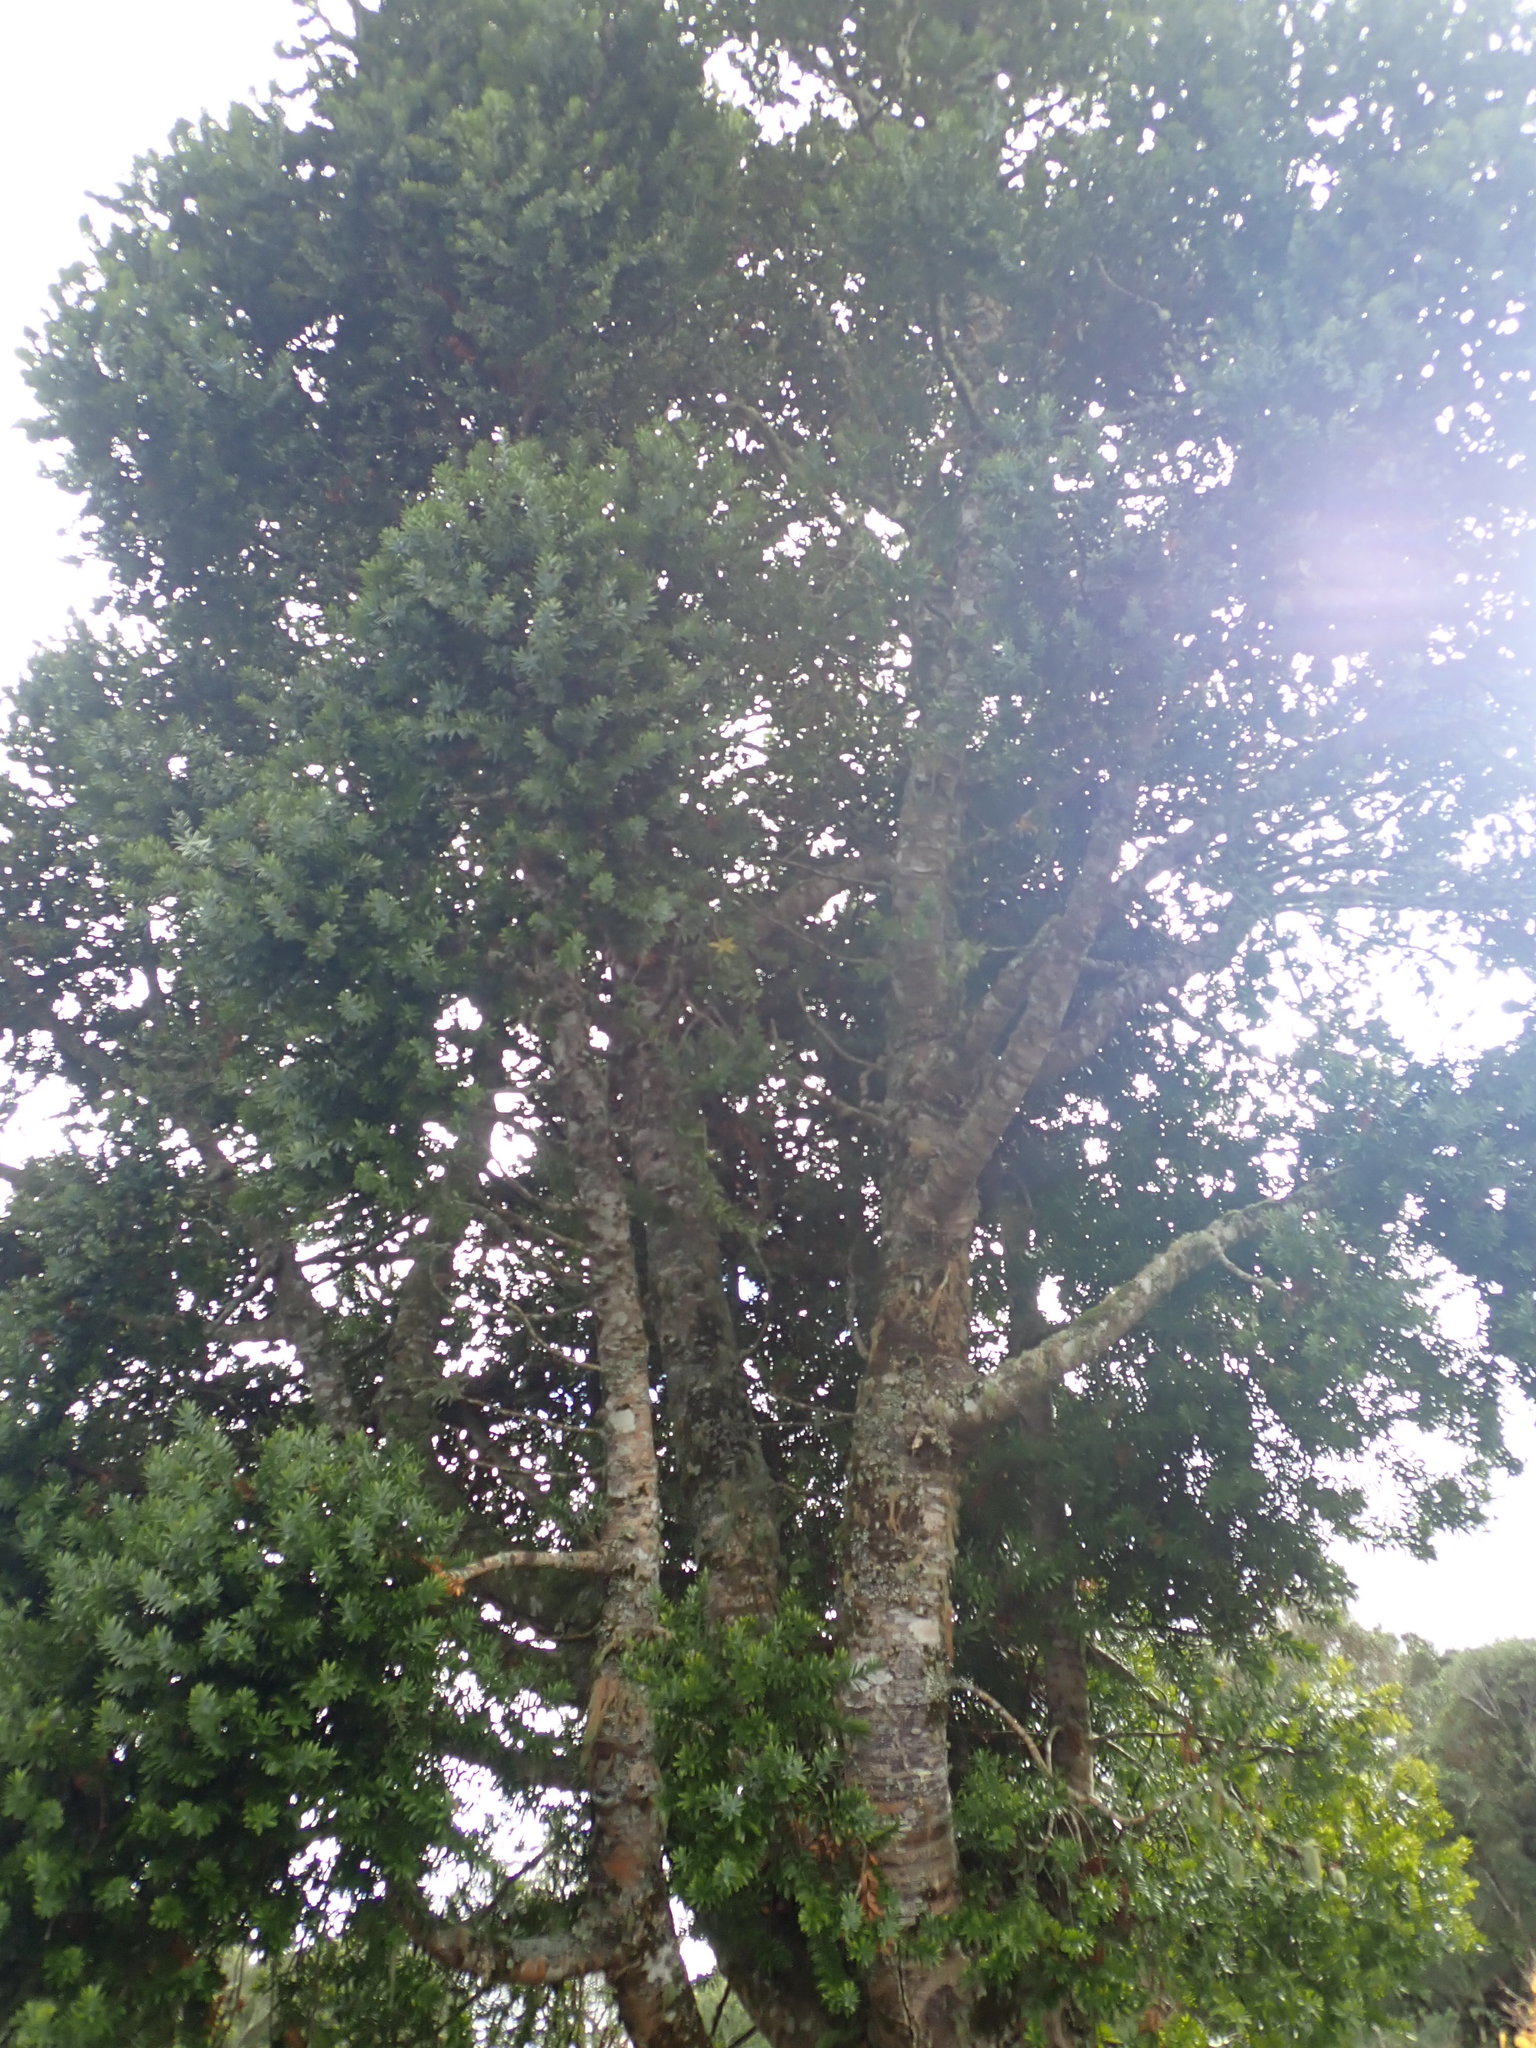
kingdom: Plantae
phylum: Tracheophyta
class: Pinopsida
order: Pinales
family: Araucariaceae
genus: Agathis
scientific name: Agathis australis
